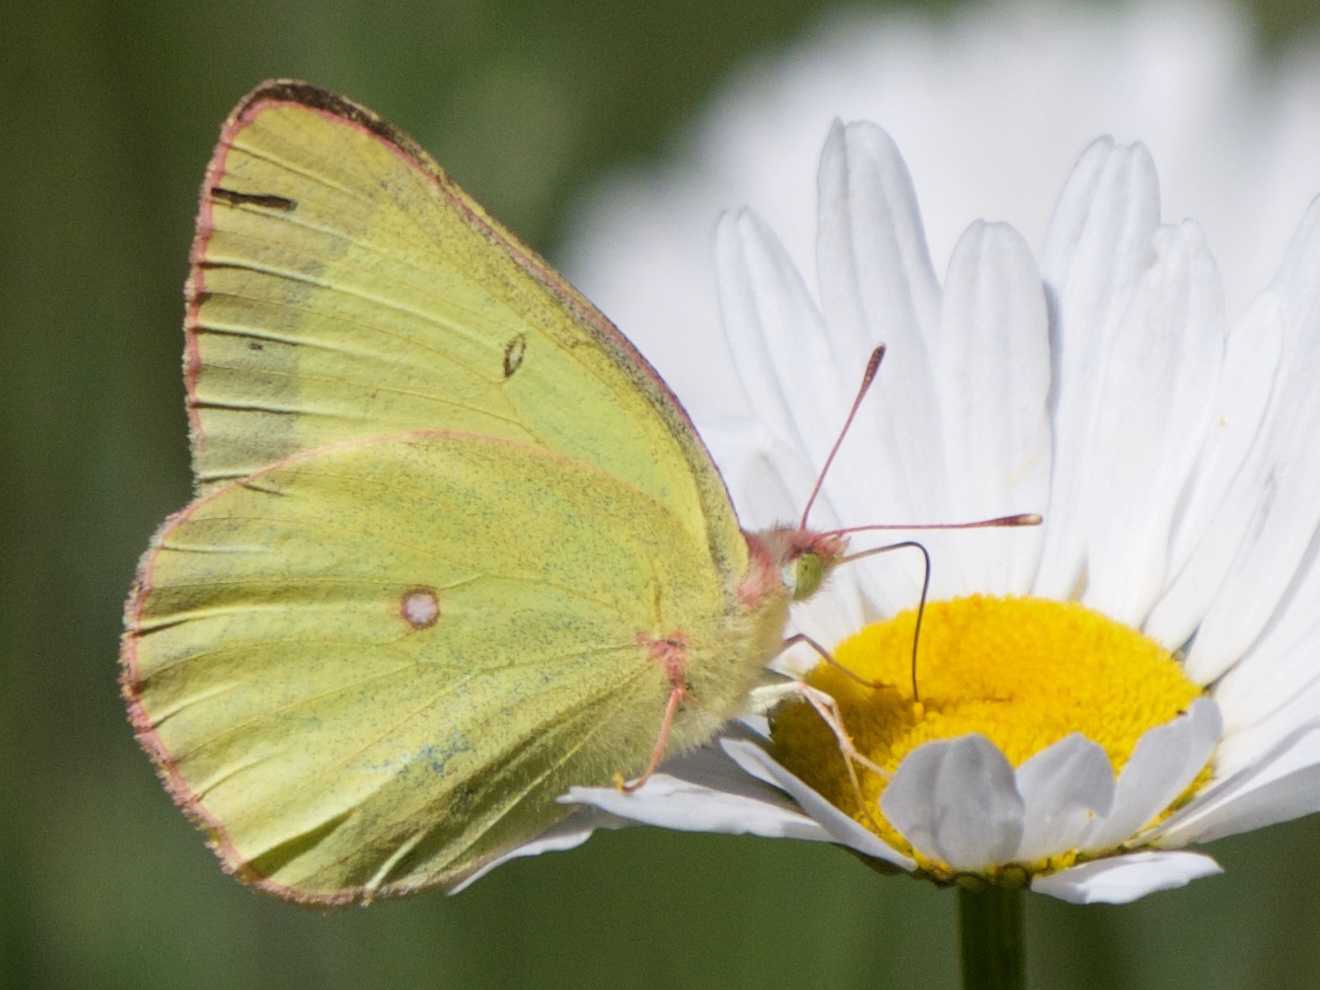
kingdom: Animalia
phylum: Arthropoda
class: Insecta
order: Lepidoptera
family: Pieridae
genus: Colias
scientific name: Colias interior
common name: Pink-edged sulphur
